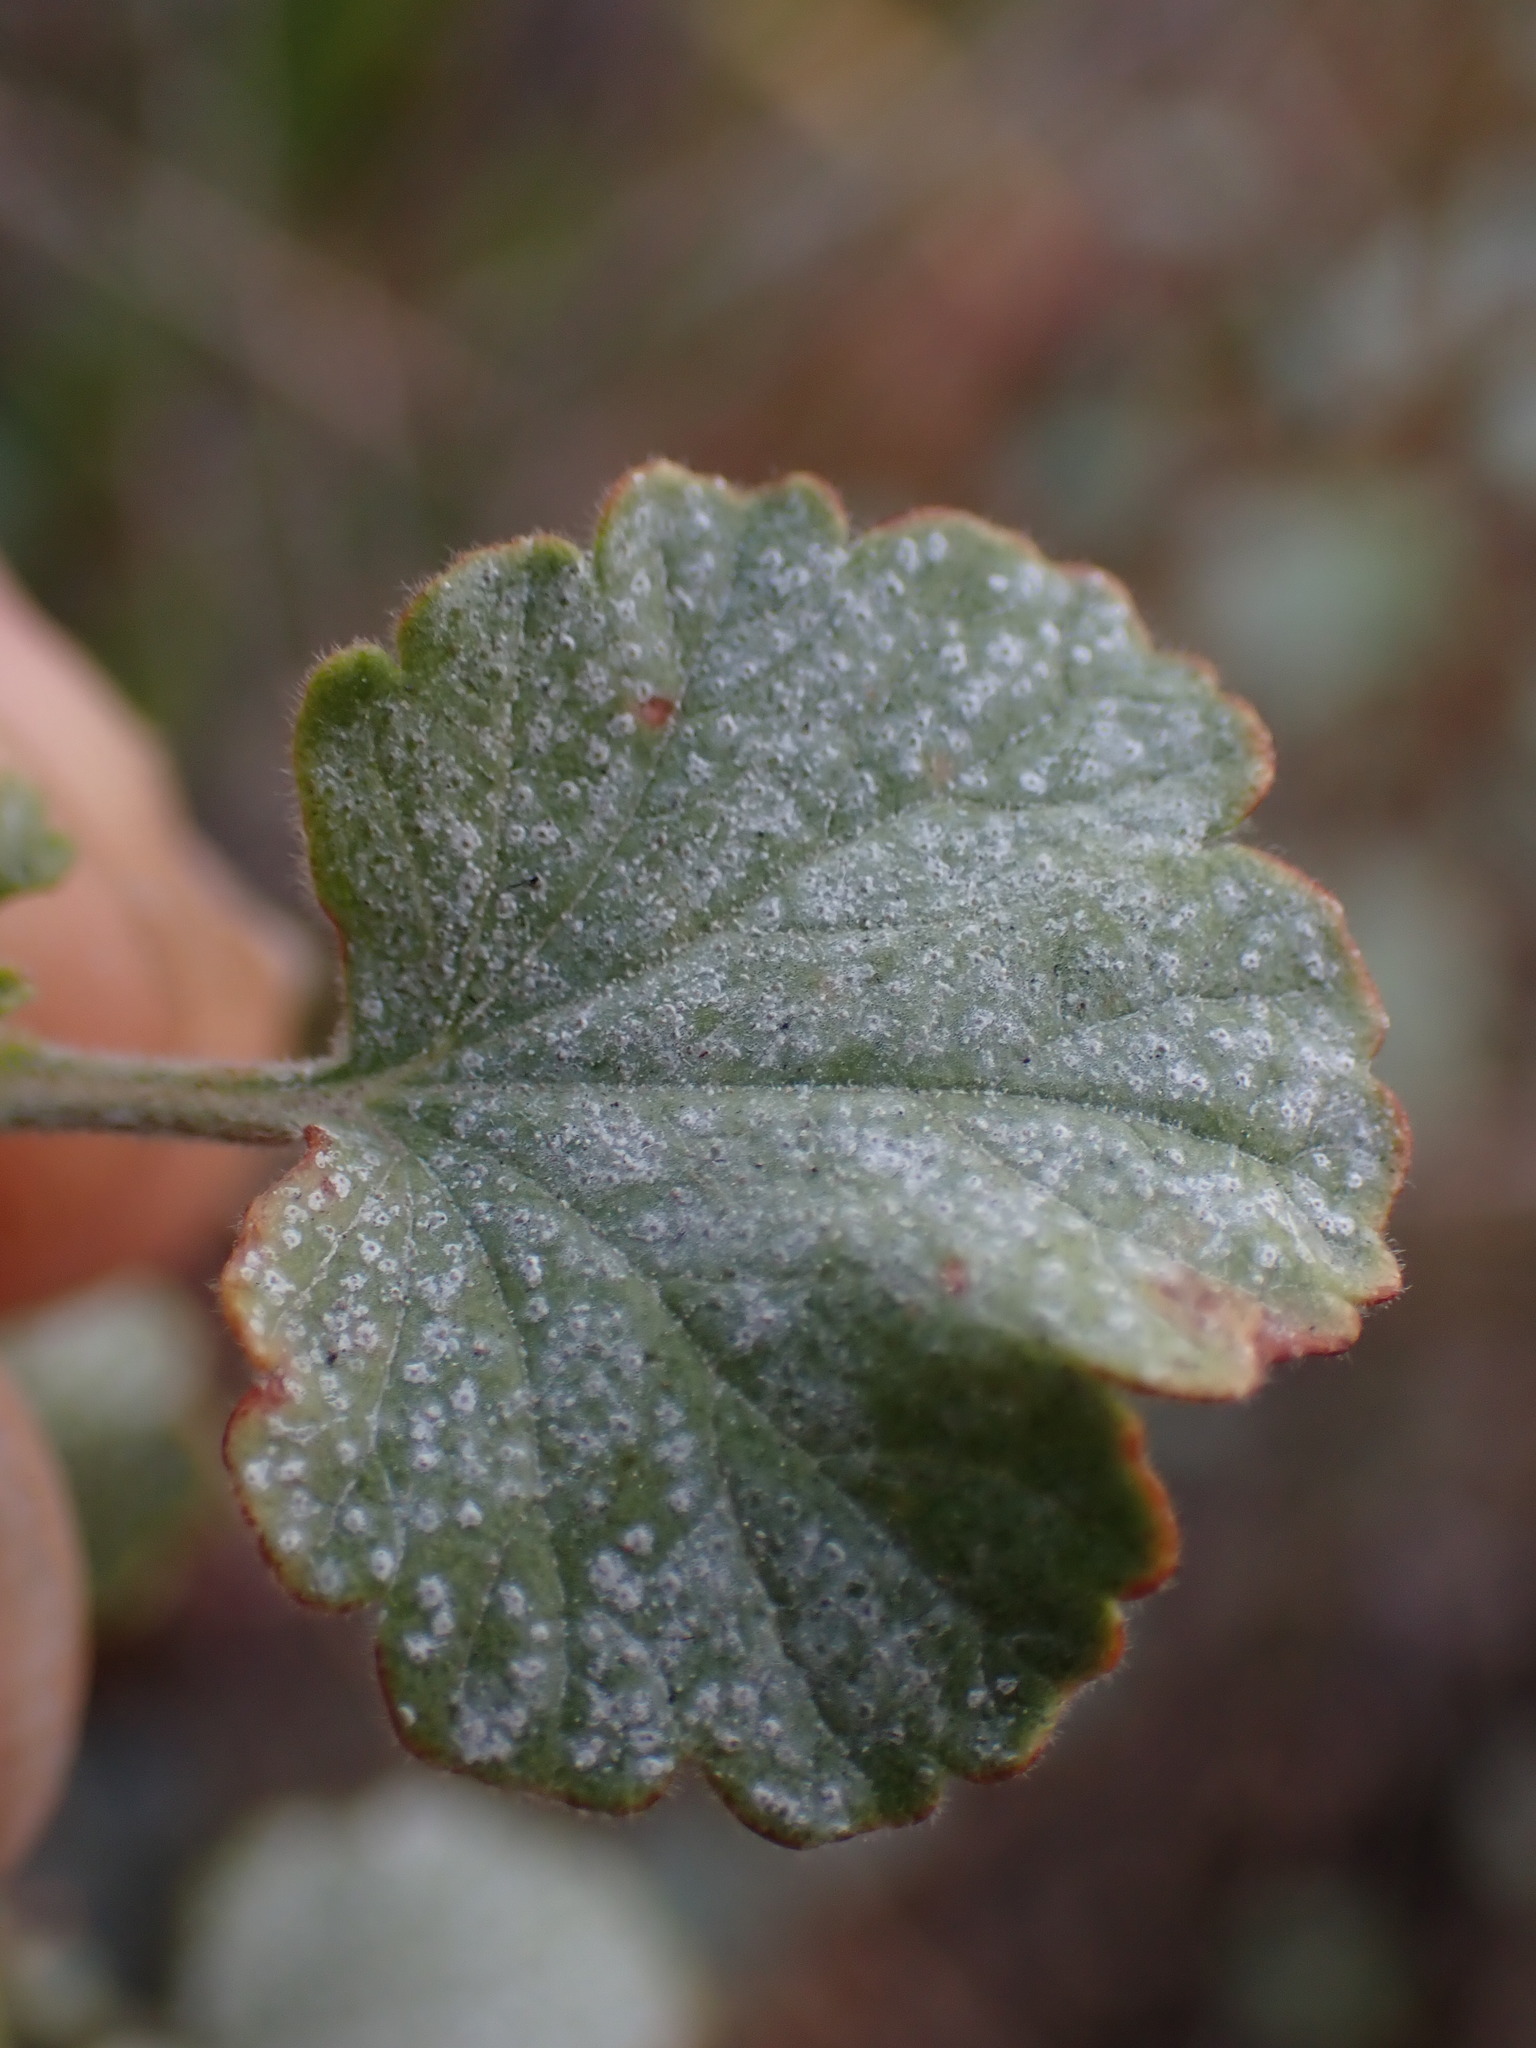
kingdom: Plantae
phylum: Tracheophyta
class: Magnoliopsida
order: Saxifragales
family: Grossulariaceae
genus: Ribes
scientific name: Ribes cereum
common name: Wax currant
